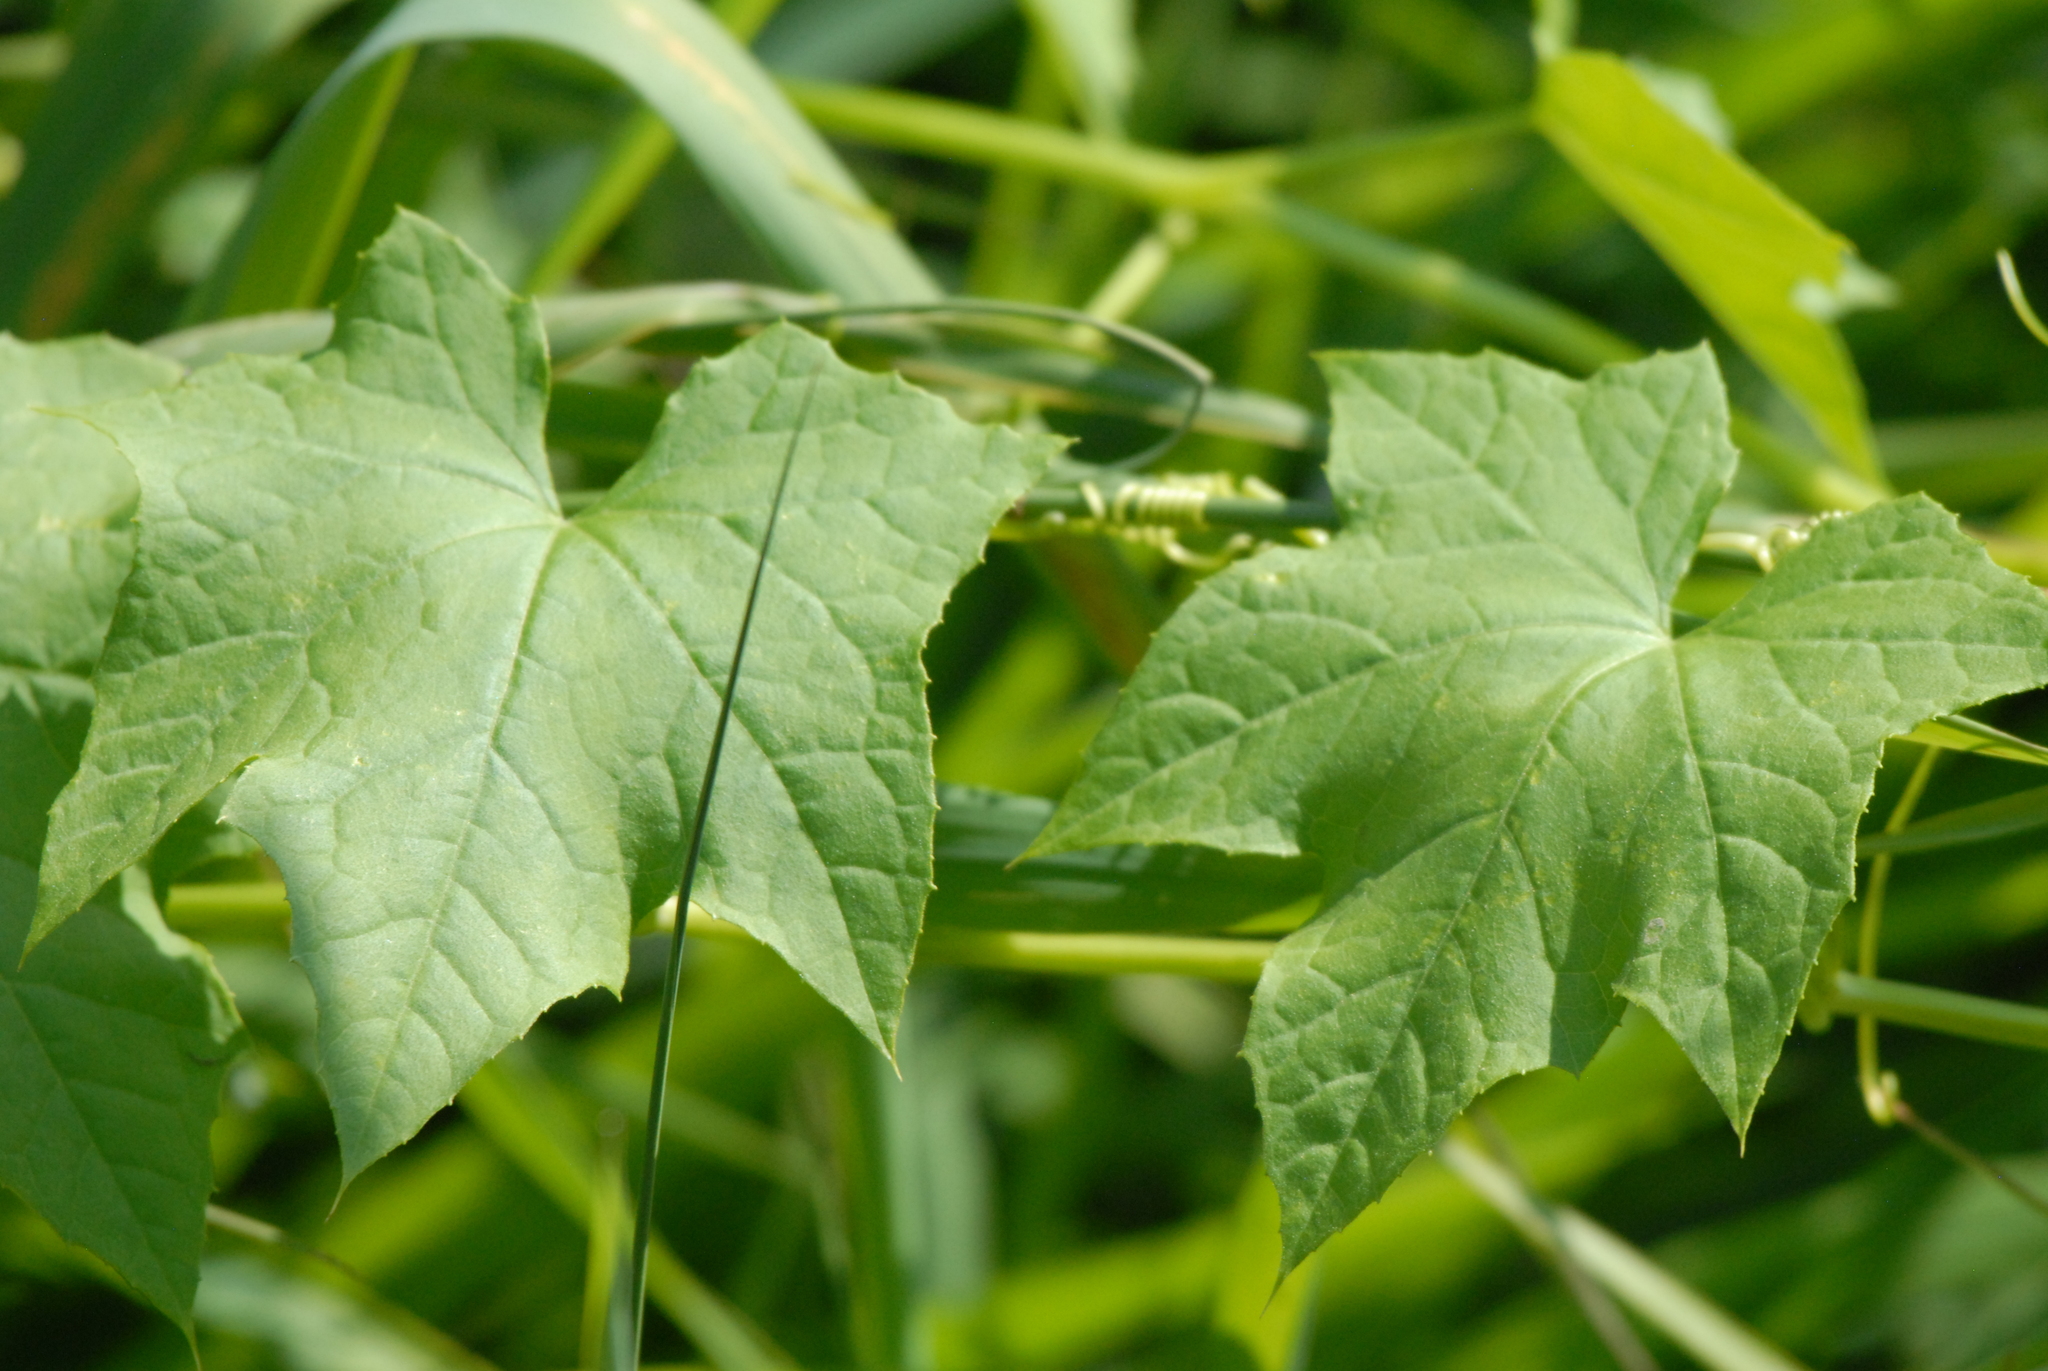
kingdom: Plantae
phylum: Tracheophyta
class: Magnoliopsida
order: Cucurbitales
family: Cucurbitaceae
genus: Echinocystis
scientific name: Echinocystis lobata
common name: Wild cucumber
